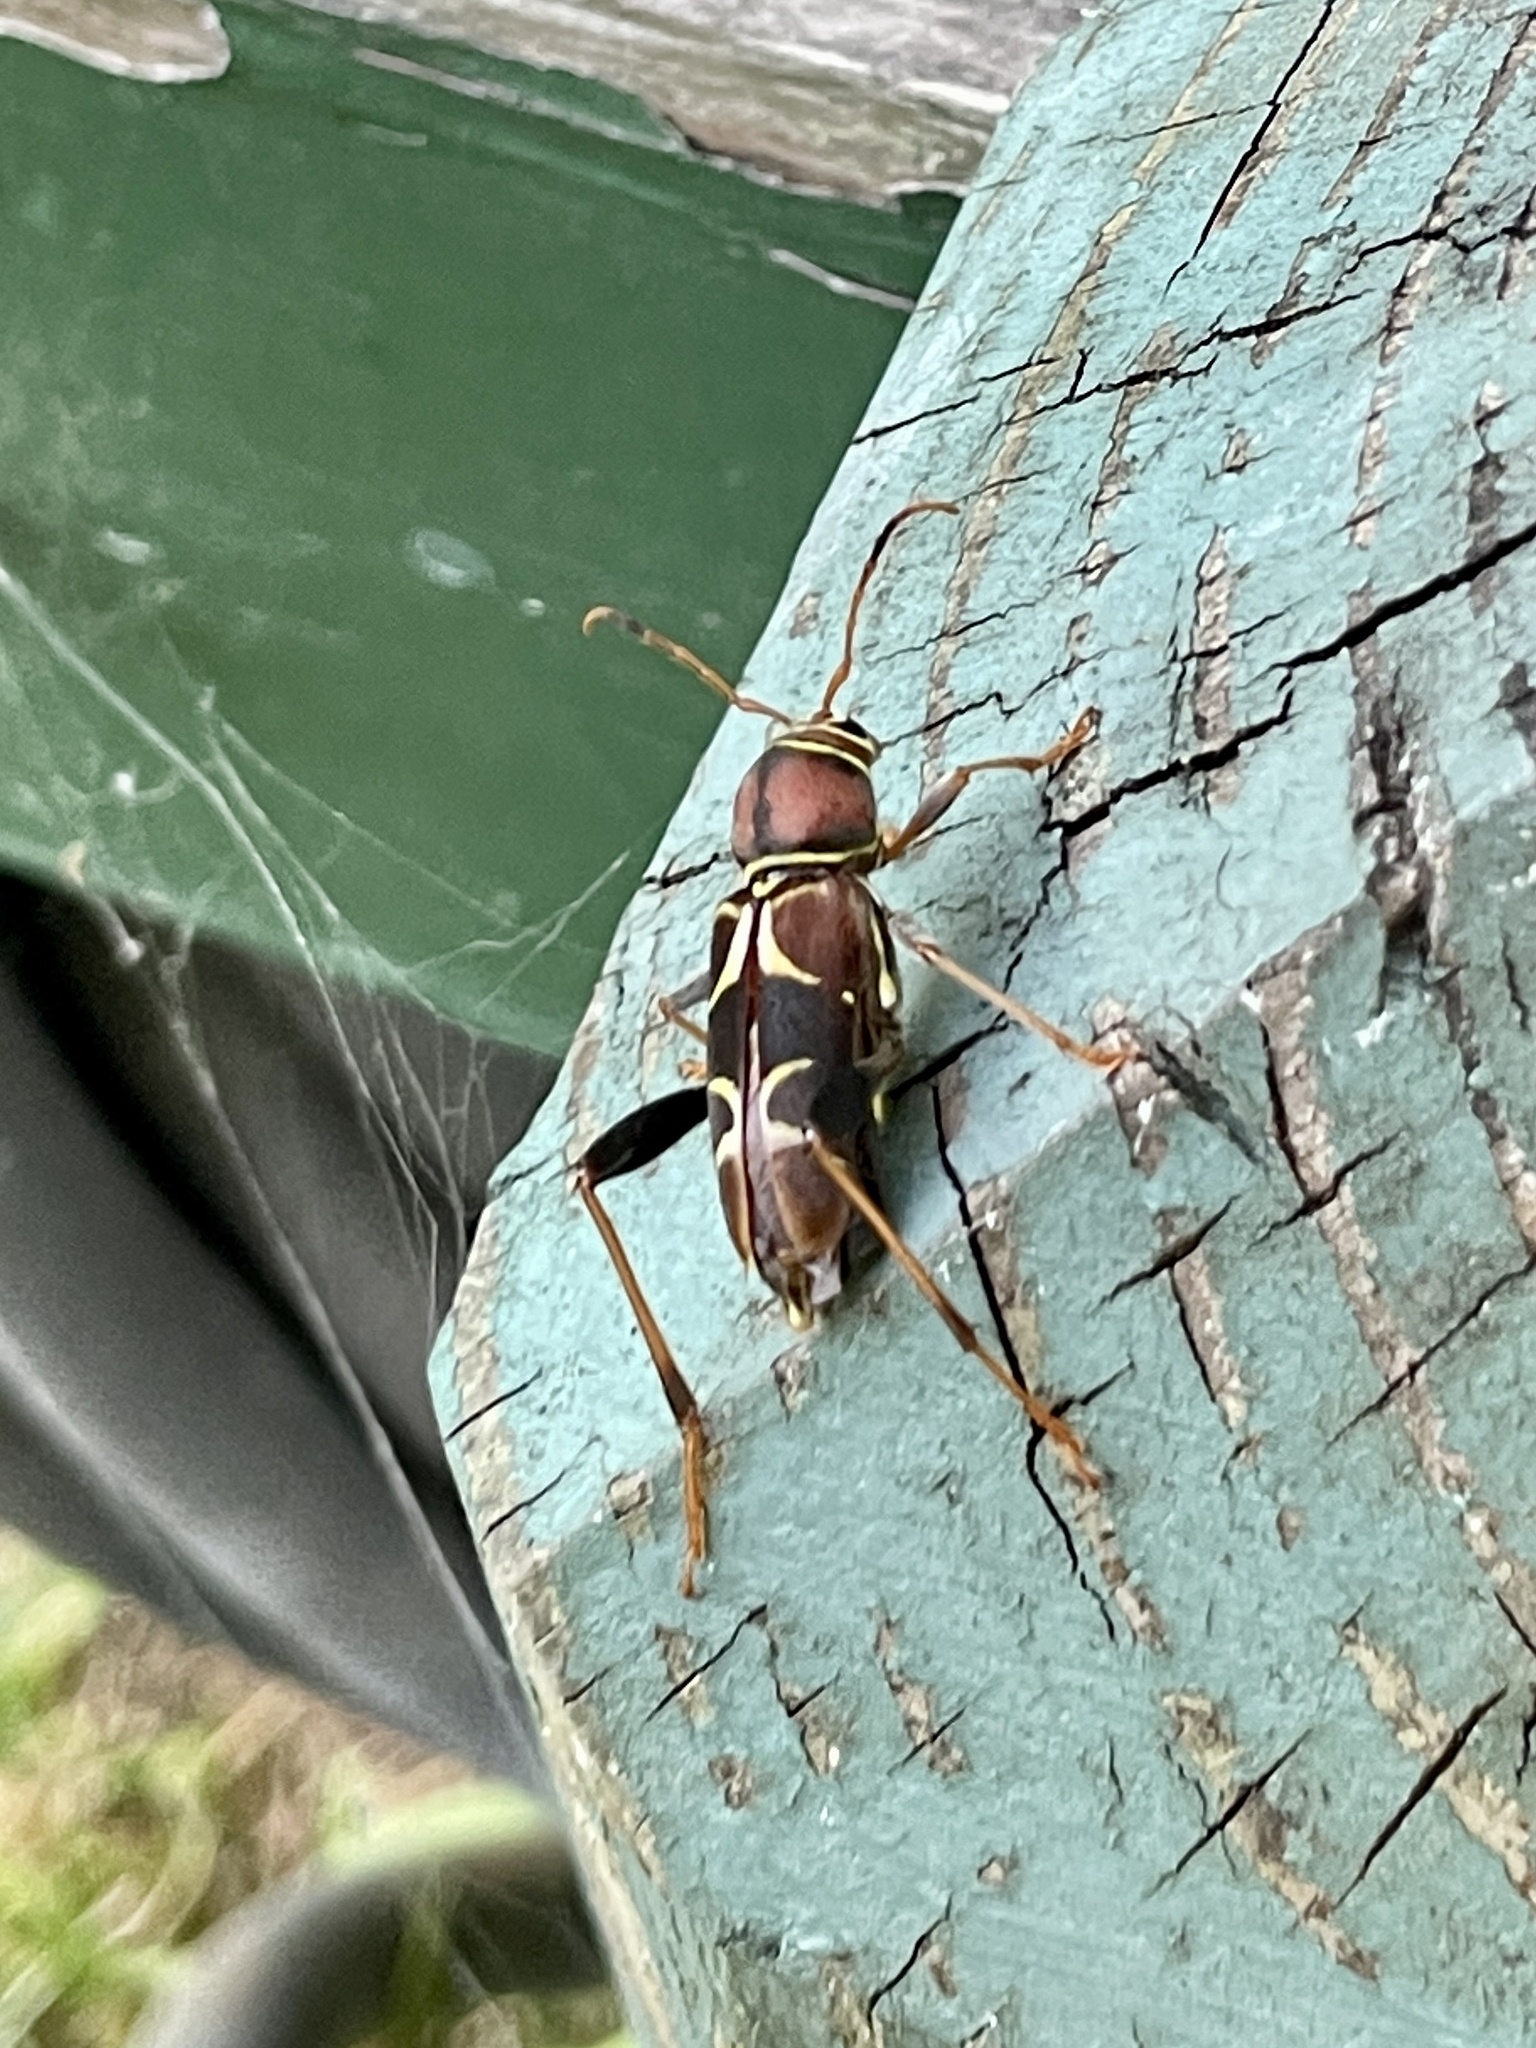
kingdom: Animalia
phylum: Arthropoda
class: Insecta
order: Coleoptera
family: Cerambycidae
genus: Neoclytus
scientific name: Neoclytus mucronatus
